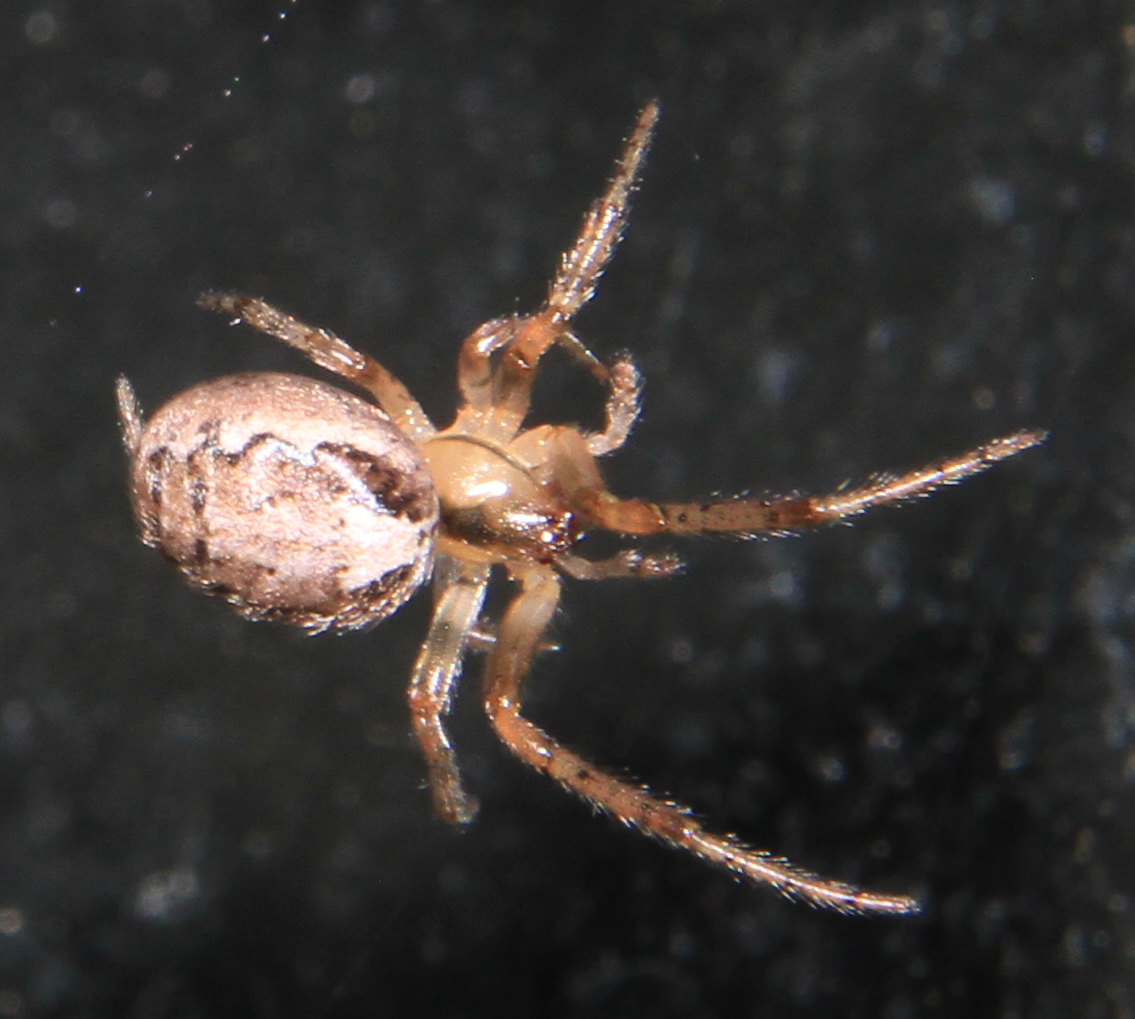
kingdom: Animalia
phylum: Arthropoda
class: Arachnida
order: Araneae
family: Araneidae
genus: Zygiella
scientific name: Zygiella x-notata
